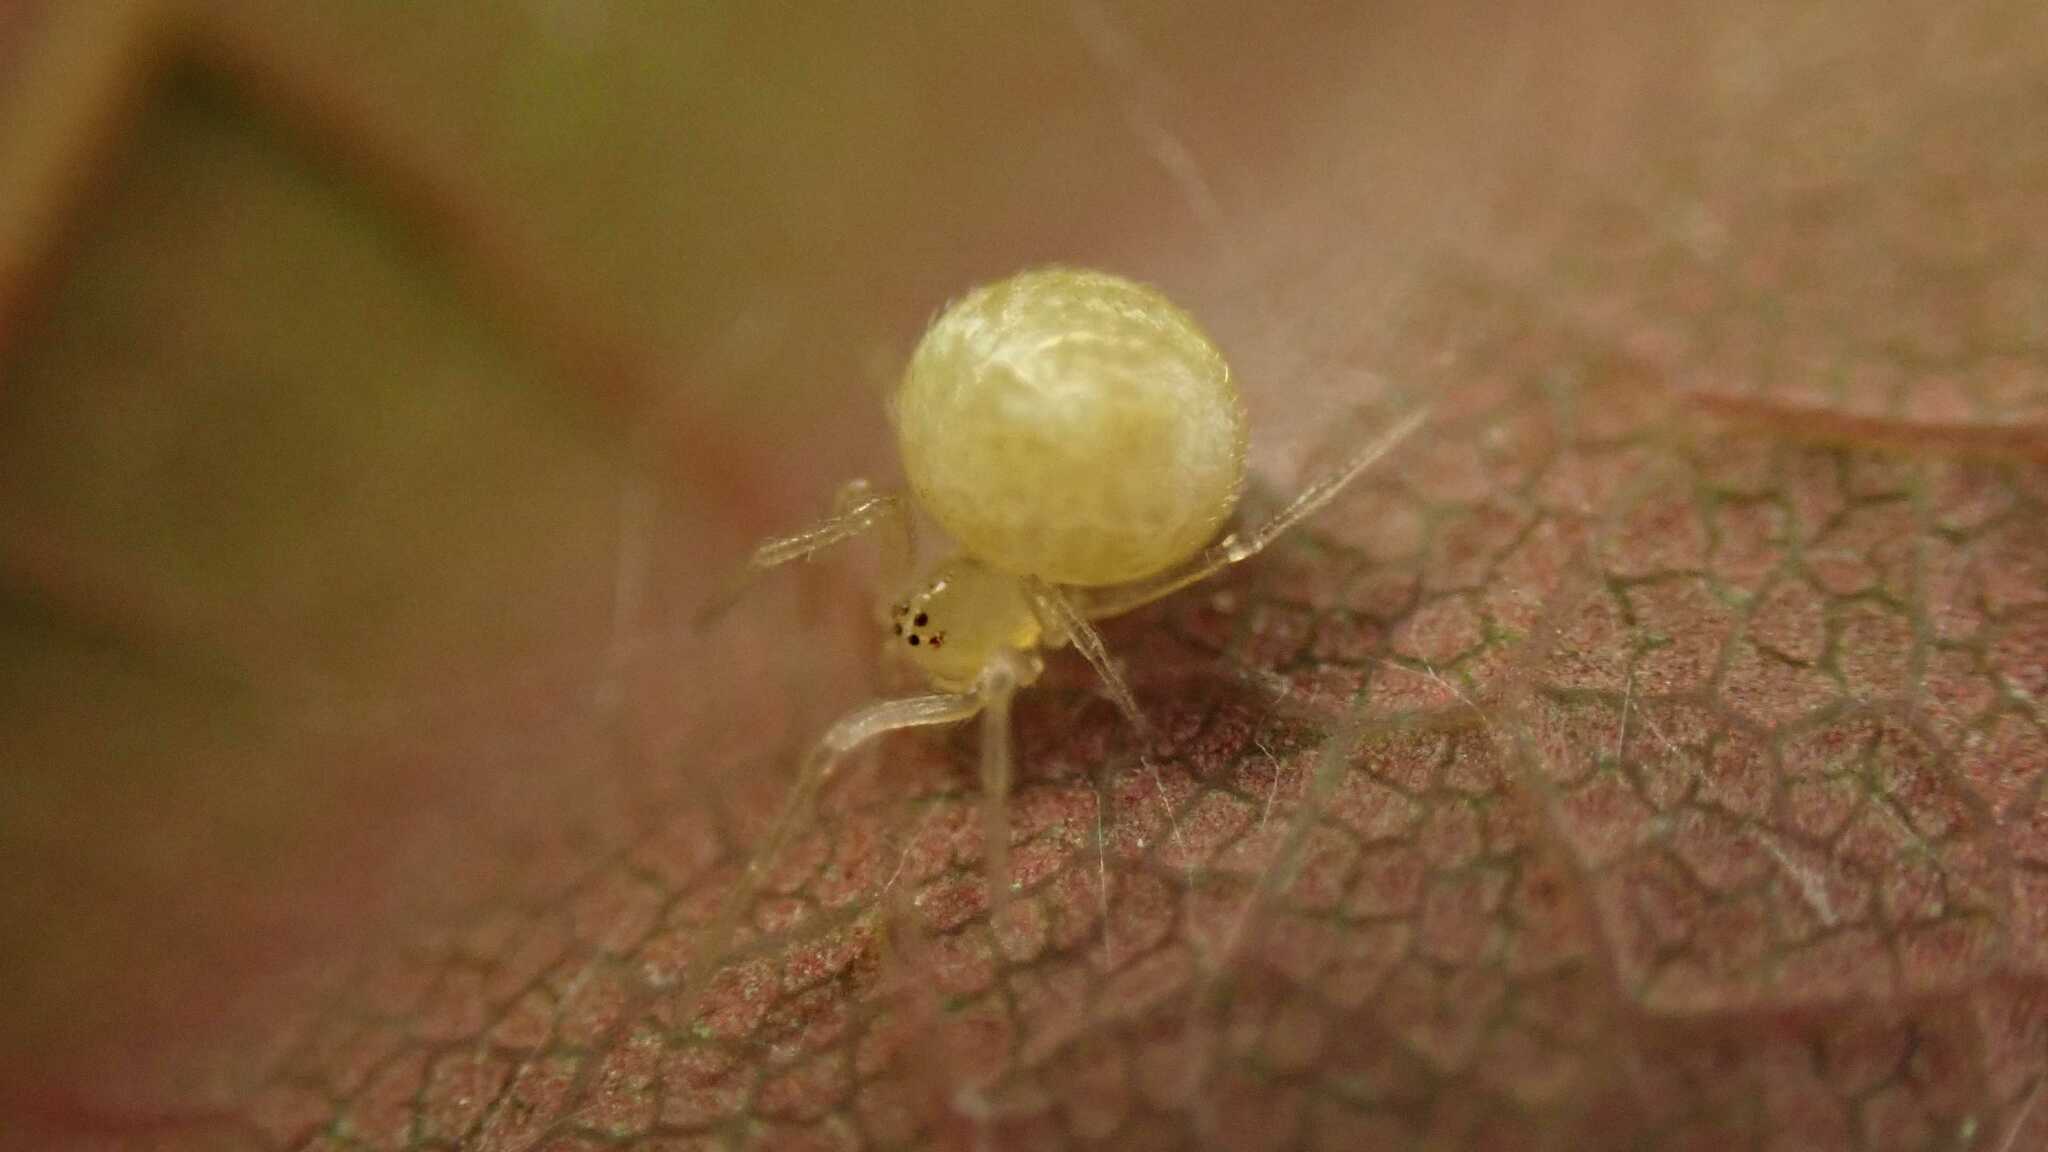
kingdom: Animalia
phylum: Arthropoda
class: Arachnida
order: Araneae
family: Theridiidae
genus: Paidiscura
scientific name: Paidiscura pallens
